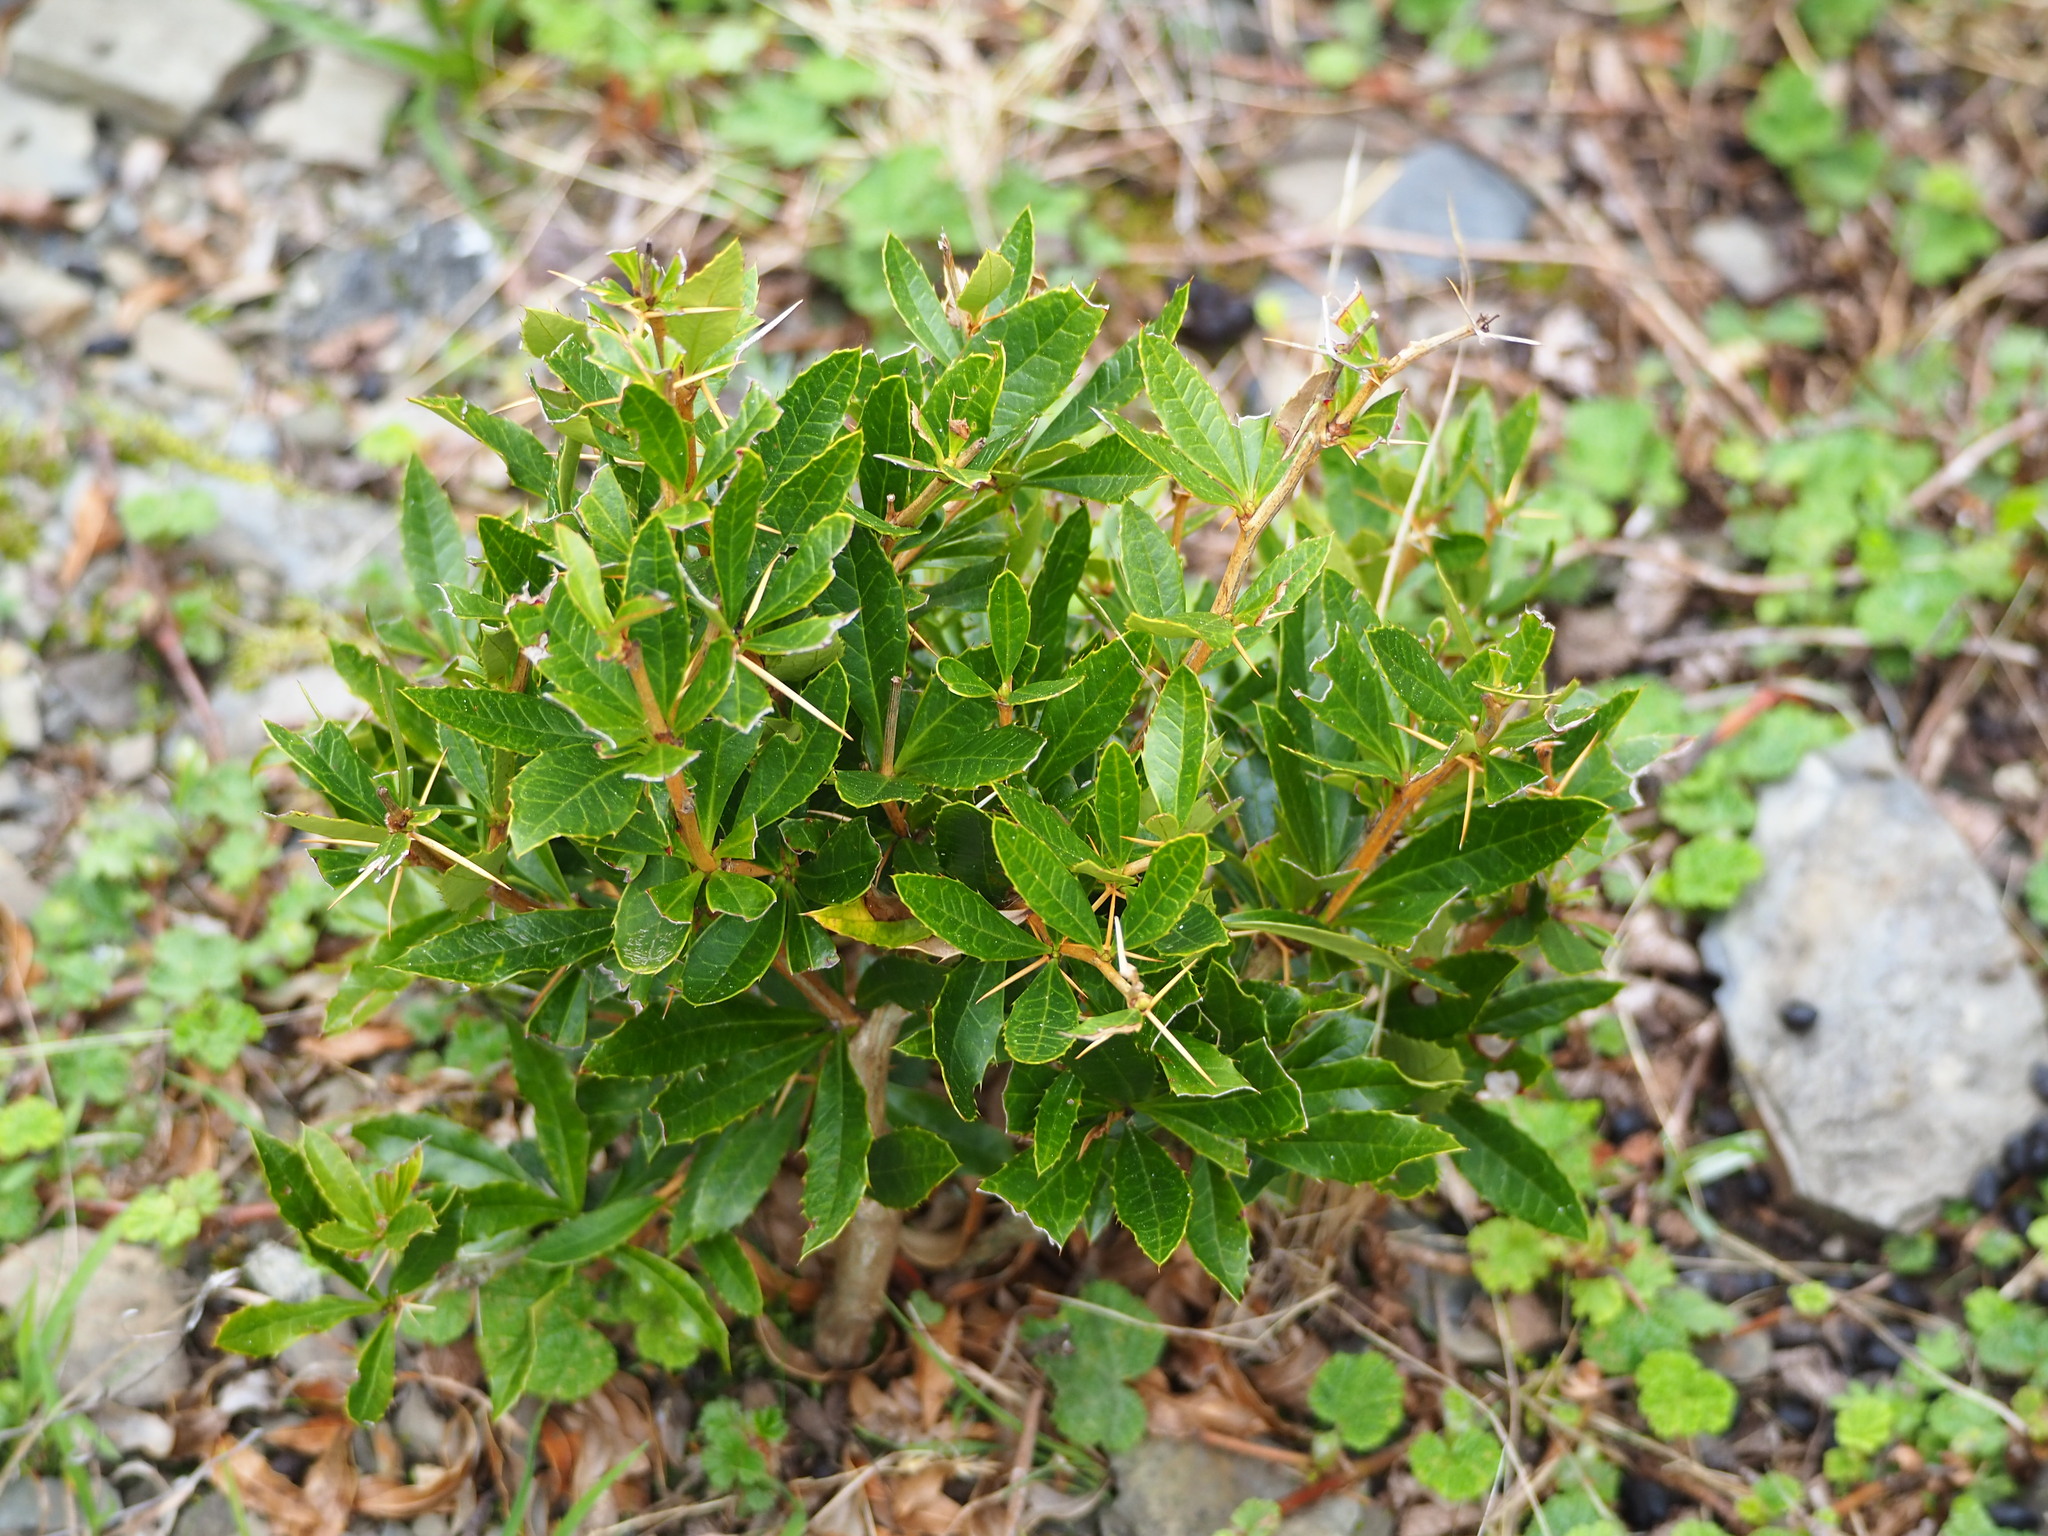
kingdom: Plantae
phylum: Tracheophyta
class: Magnoliopsida
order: Ranunculales
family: Berberidaceae
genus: Berberis
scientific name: Berberis kawakamii
